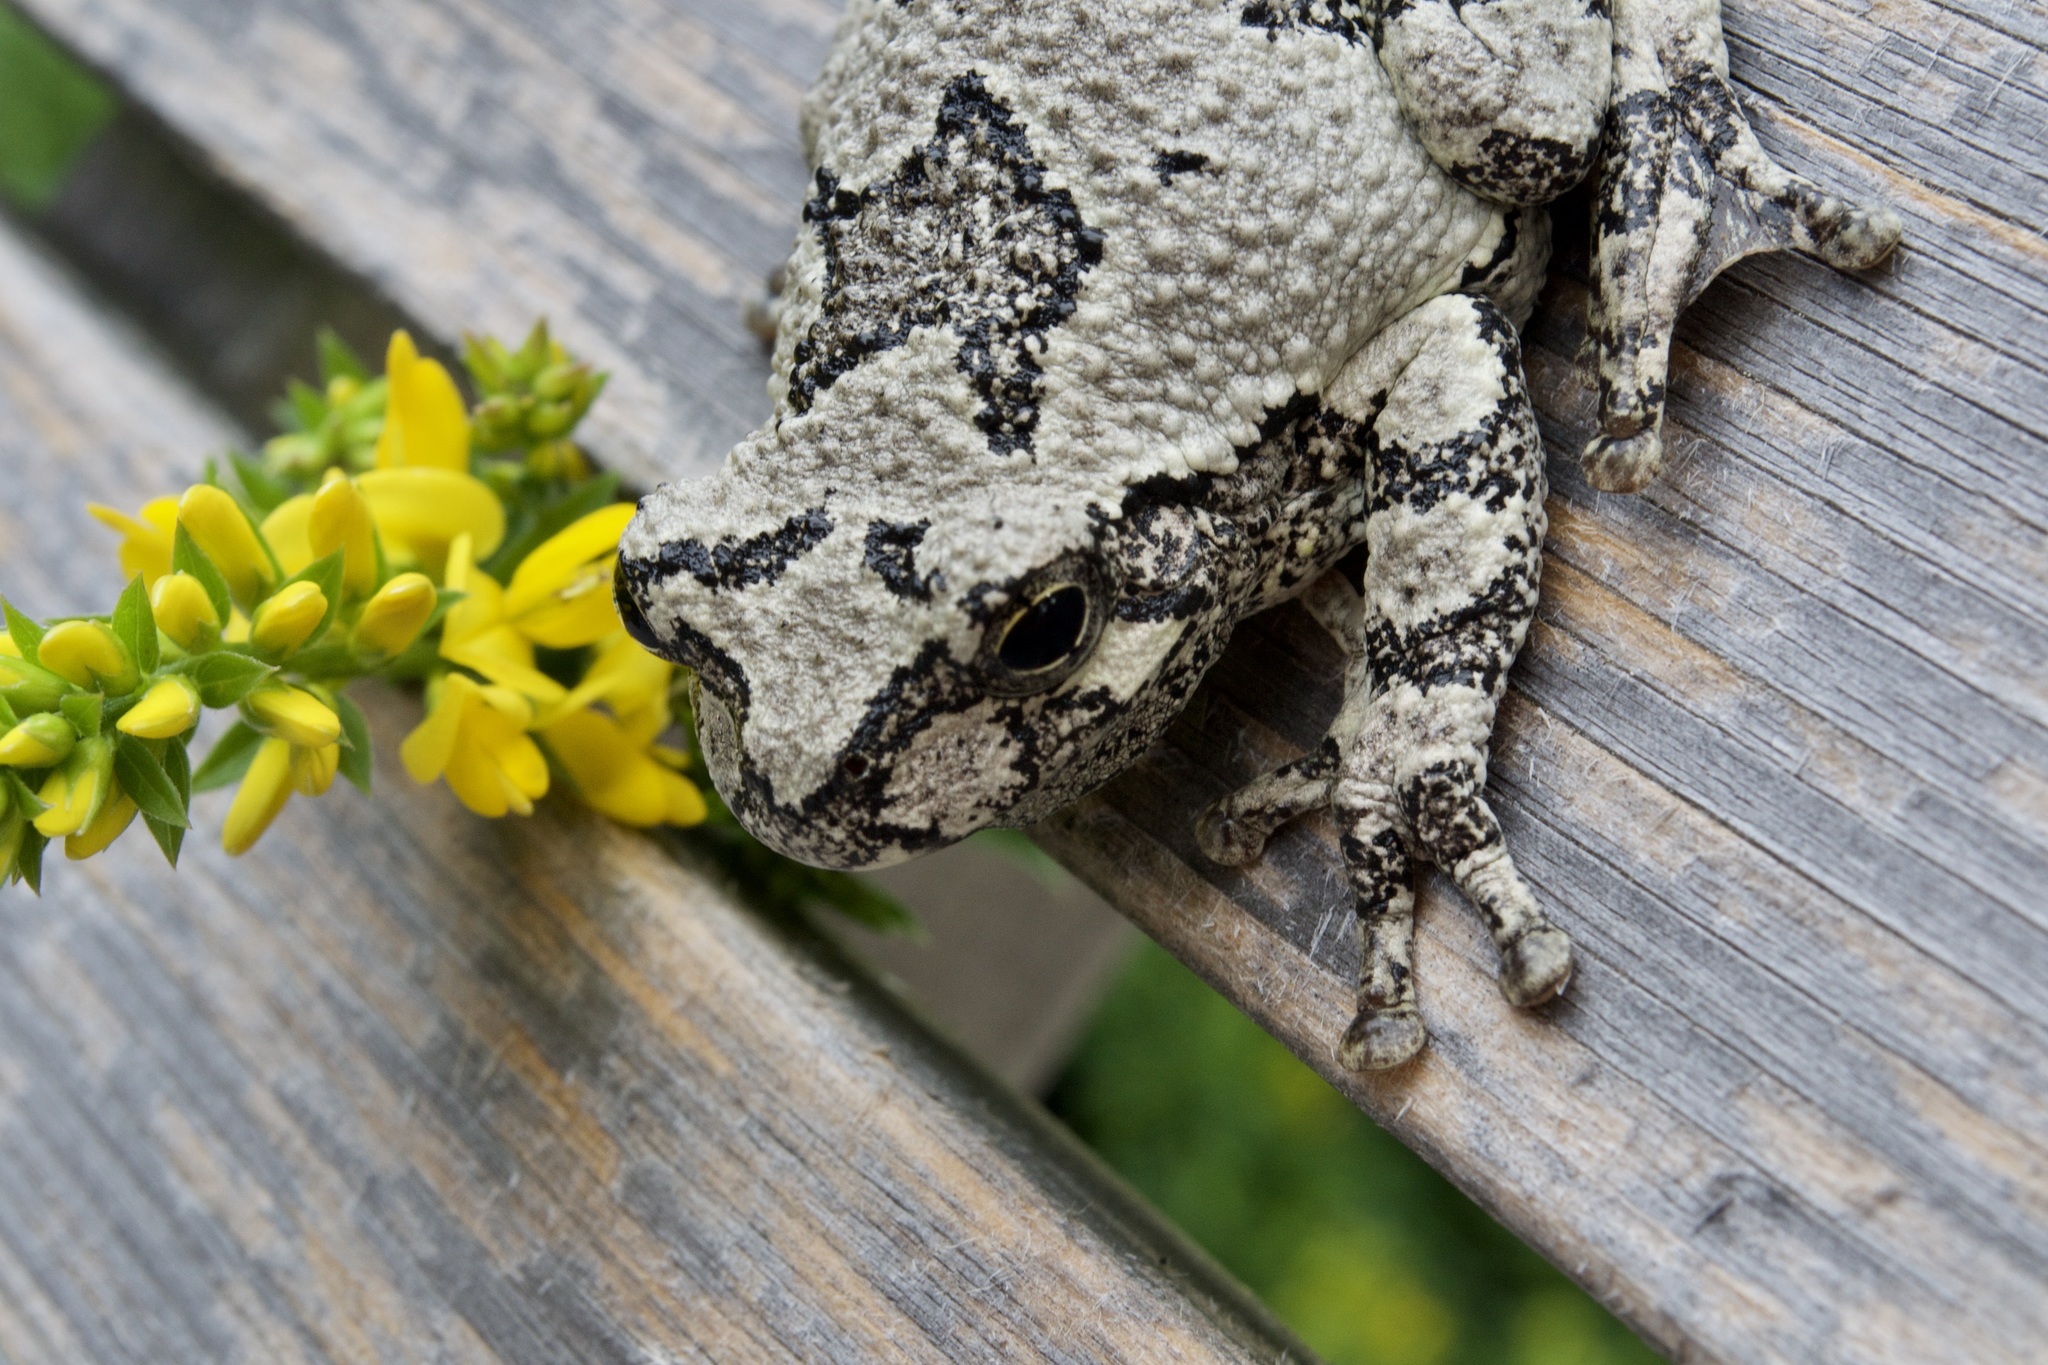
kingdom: Animalia
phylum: Chordata
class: Amphibia
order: Anura
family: Hylidae
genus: Dryophytes
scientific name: Dryophytes versicolor
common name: Gray treefrog
